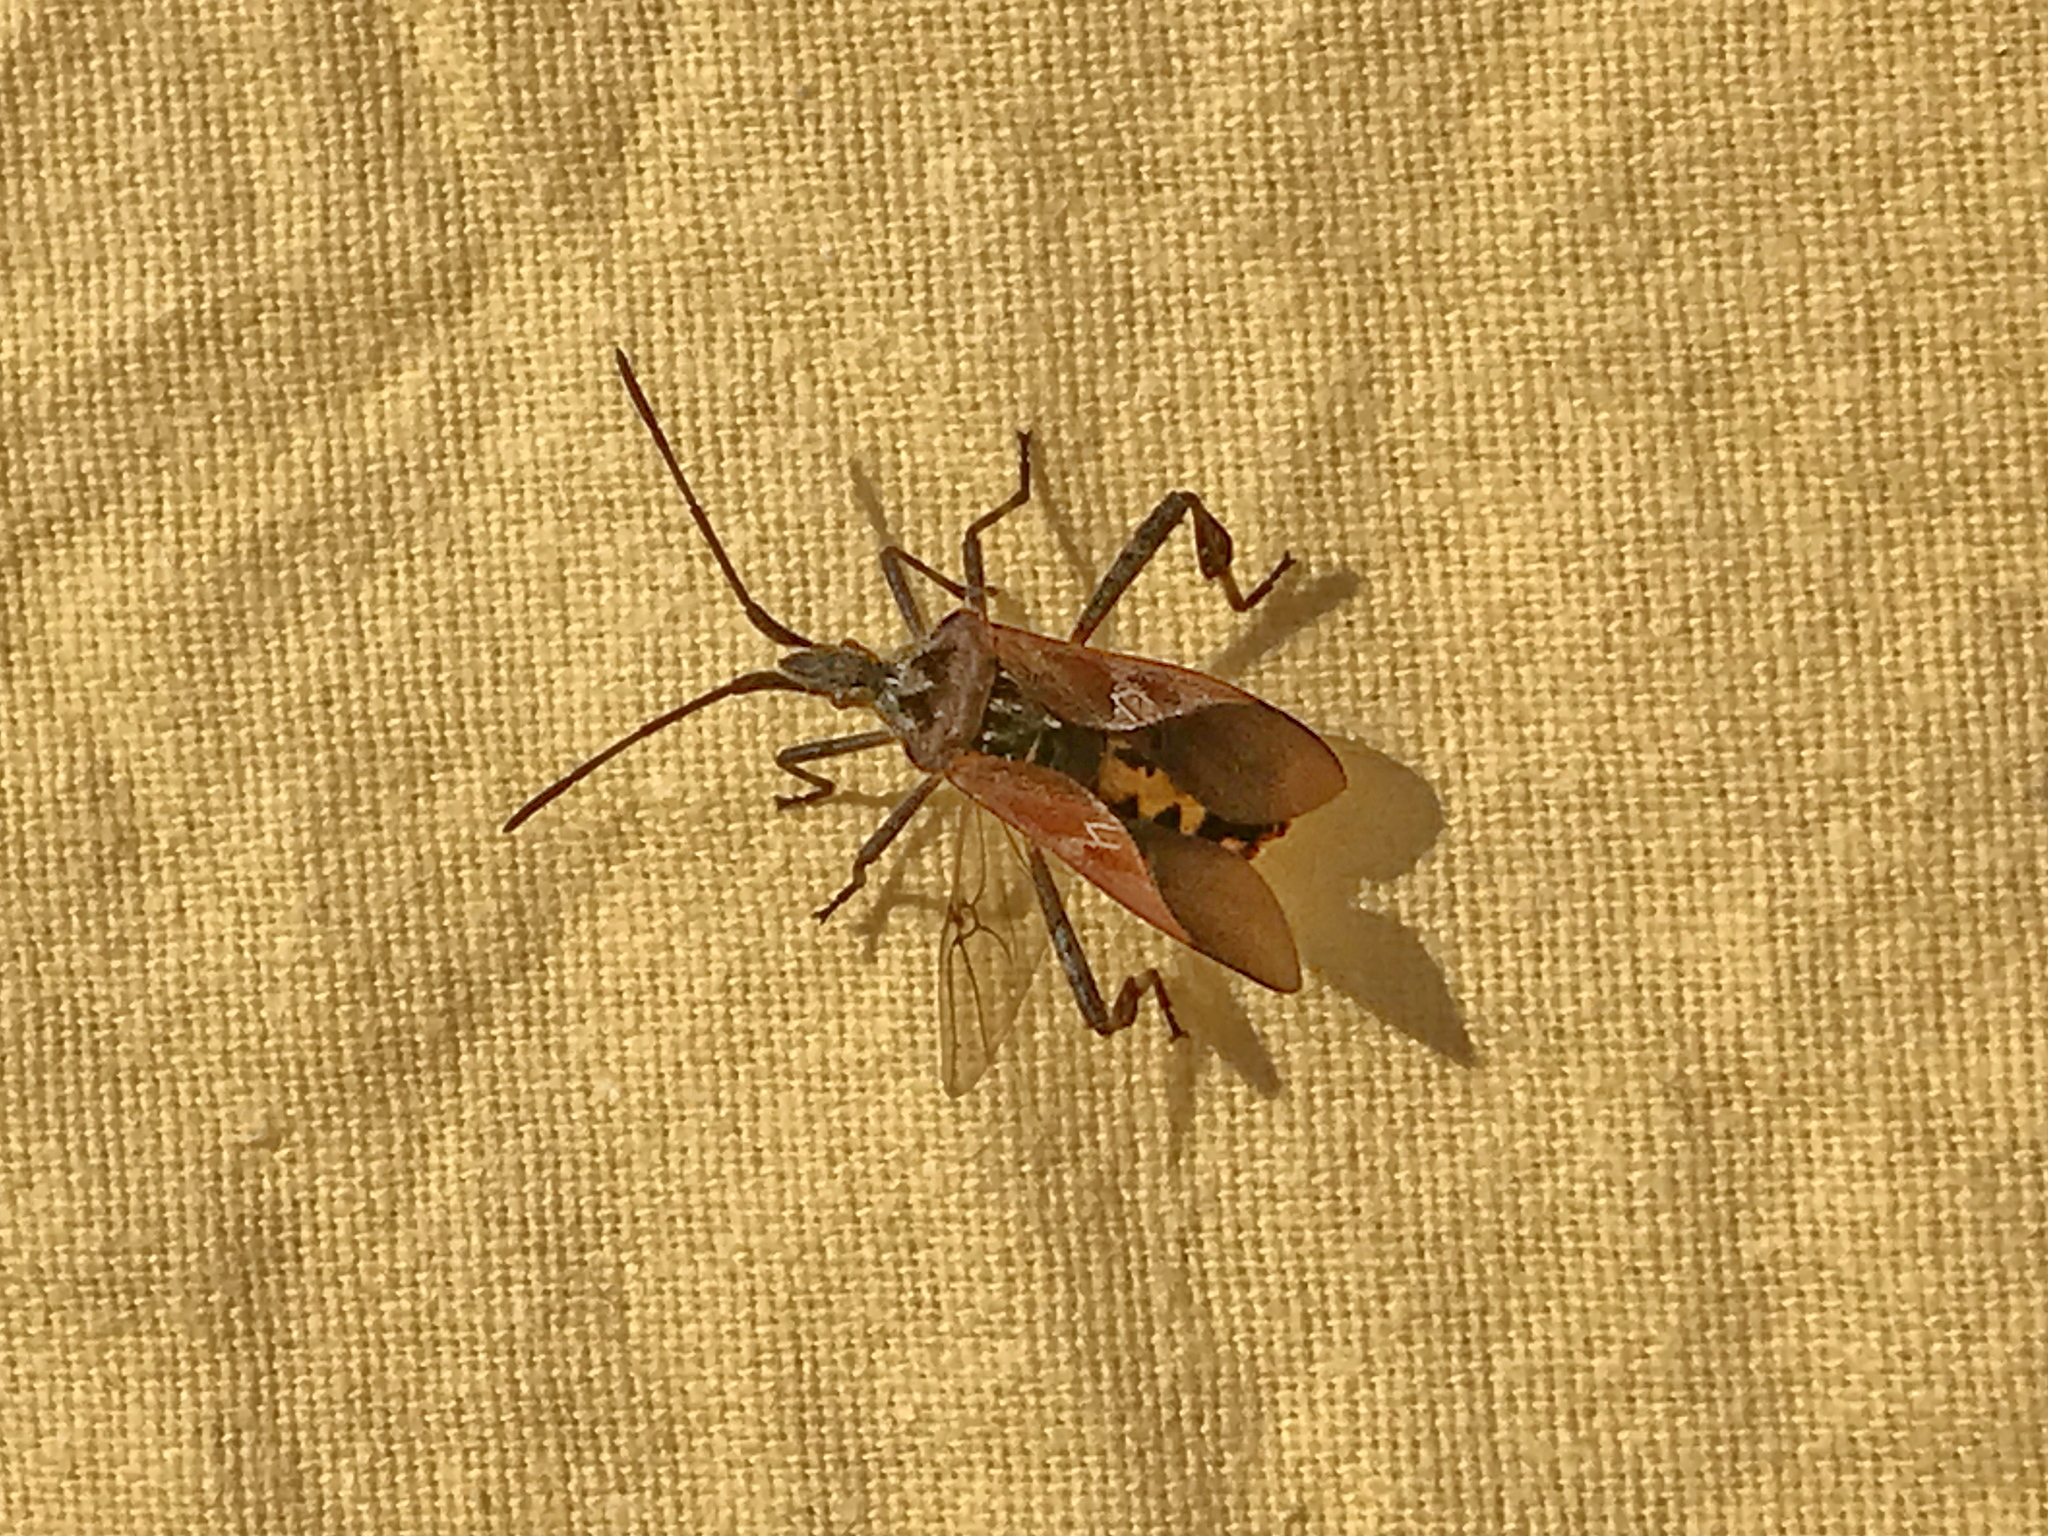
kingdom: Animalia
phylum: Arthropoda
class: Insecta
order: Hemiptera
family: Coreidae
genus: Leptoglossus
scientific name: Leptoglossus occidentalis
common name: Western conifer-seed bug
